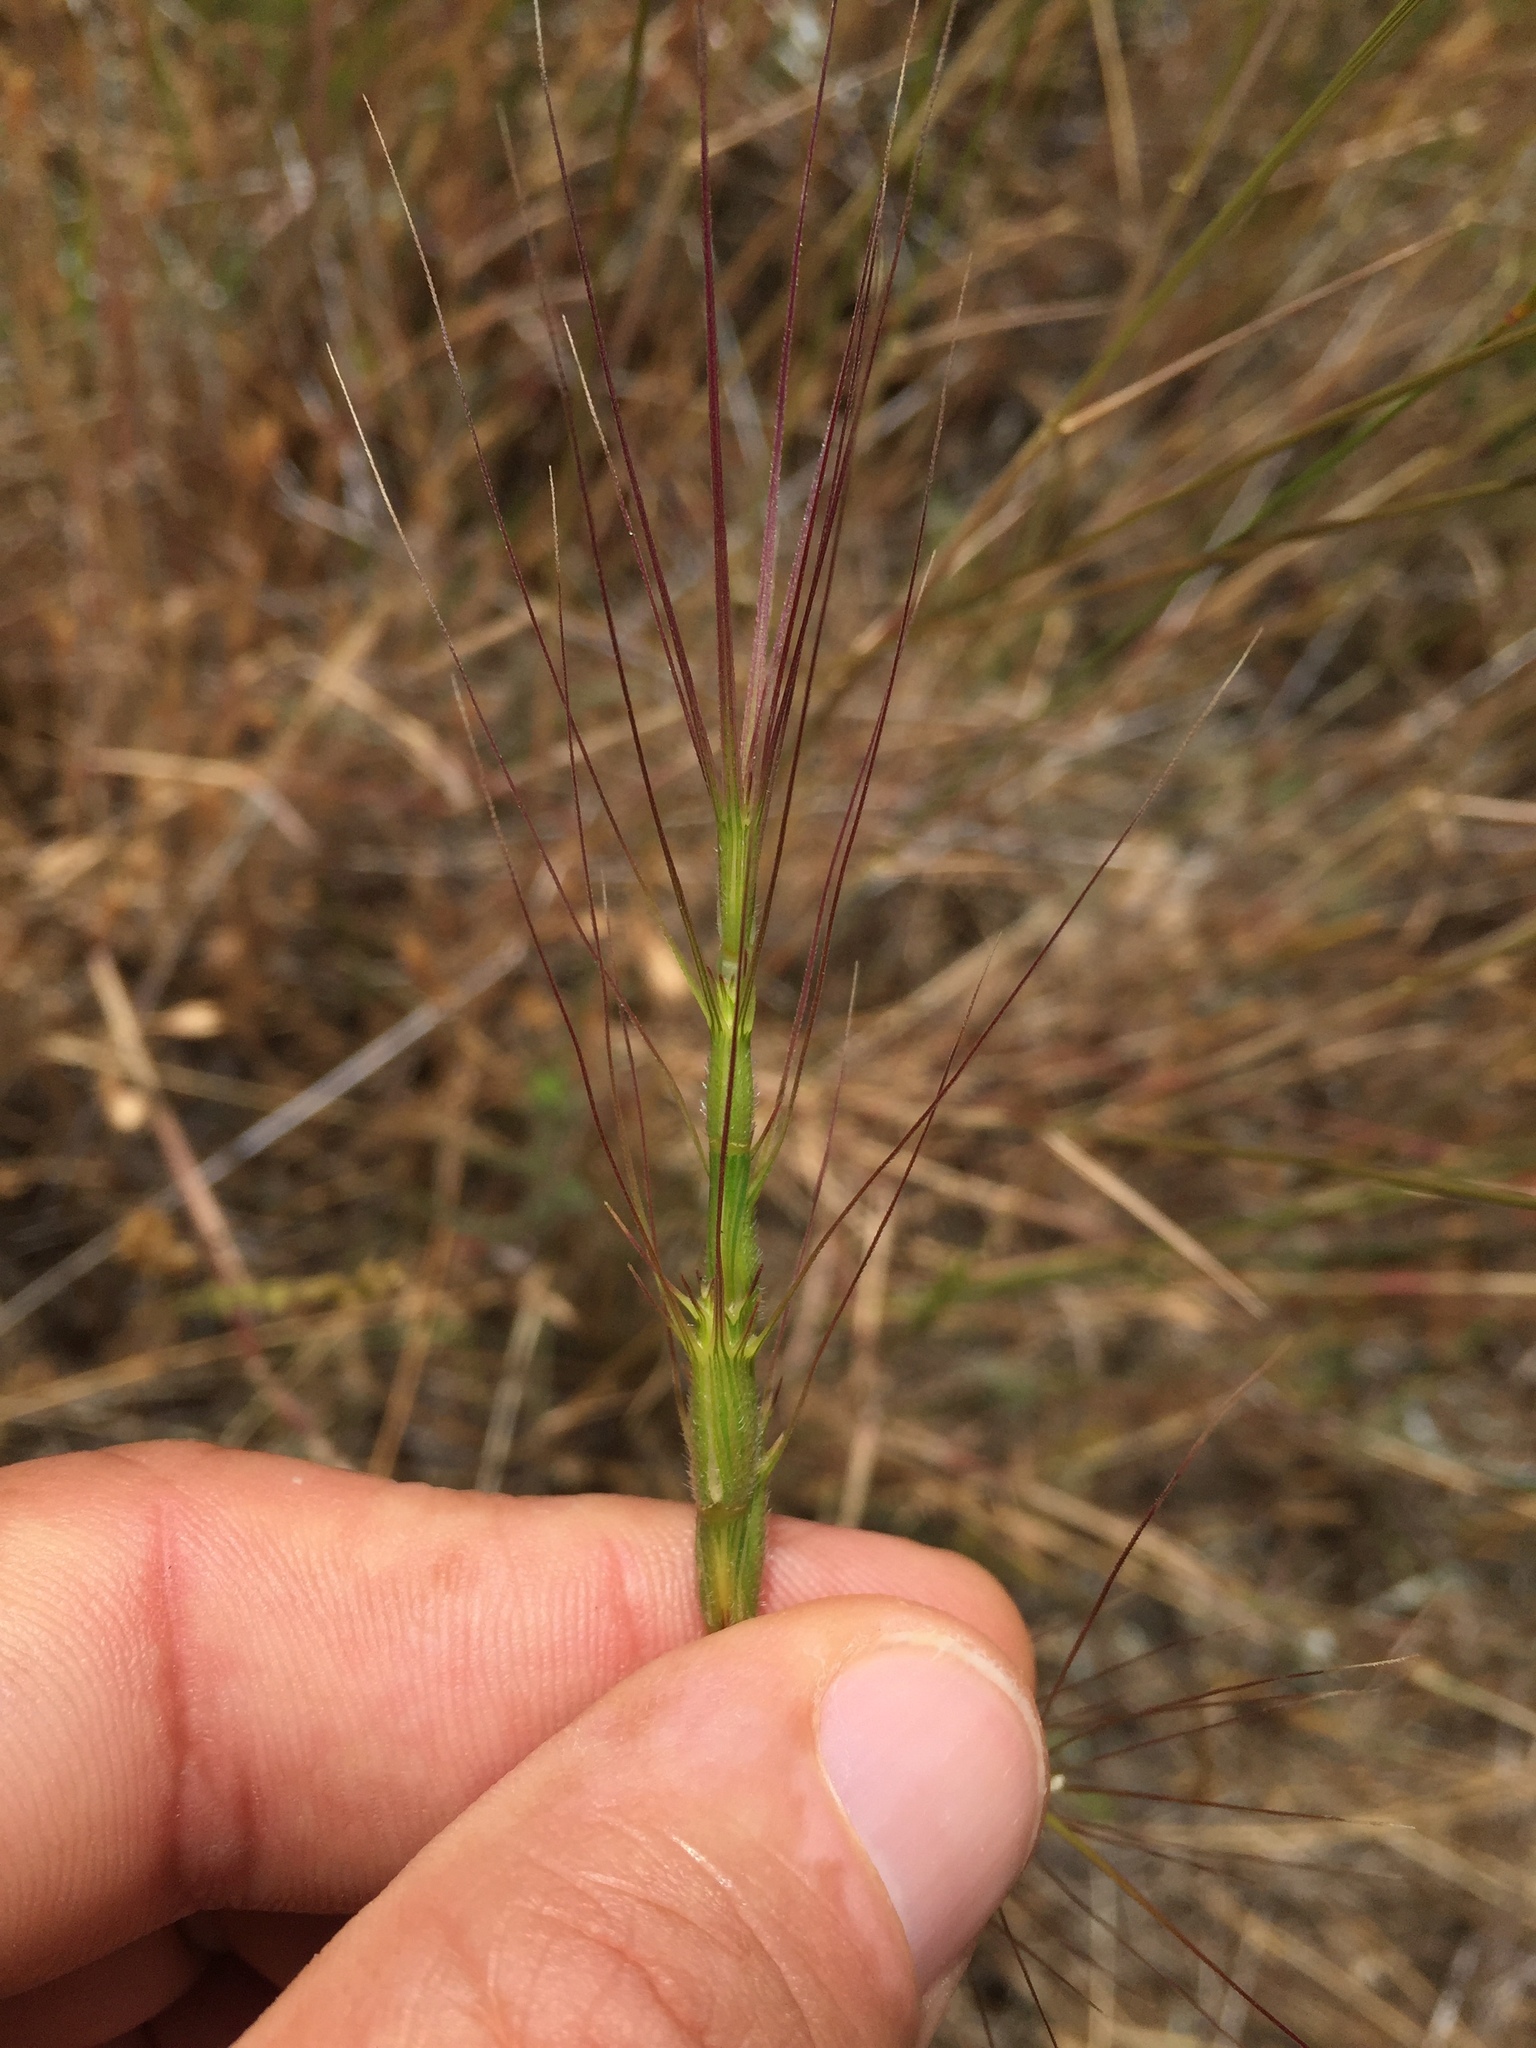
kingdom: Plantae
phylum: Tracheophyta
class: Liliopsida
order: Poales
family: Poaceae
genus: Aegilops
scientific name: Aegilops triuncialis
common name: Barb goat grass
